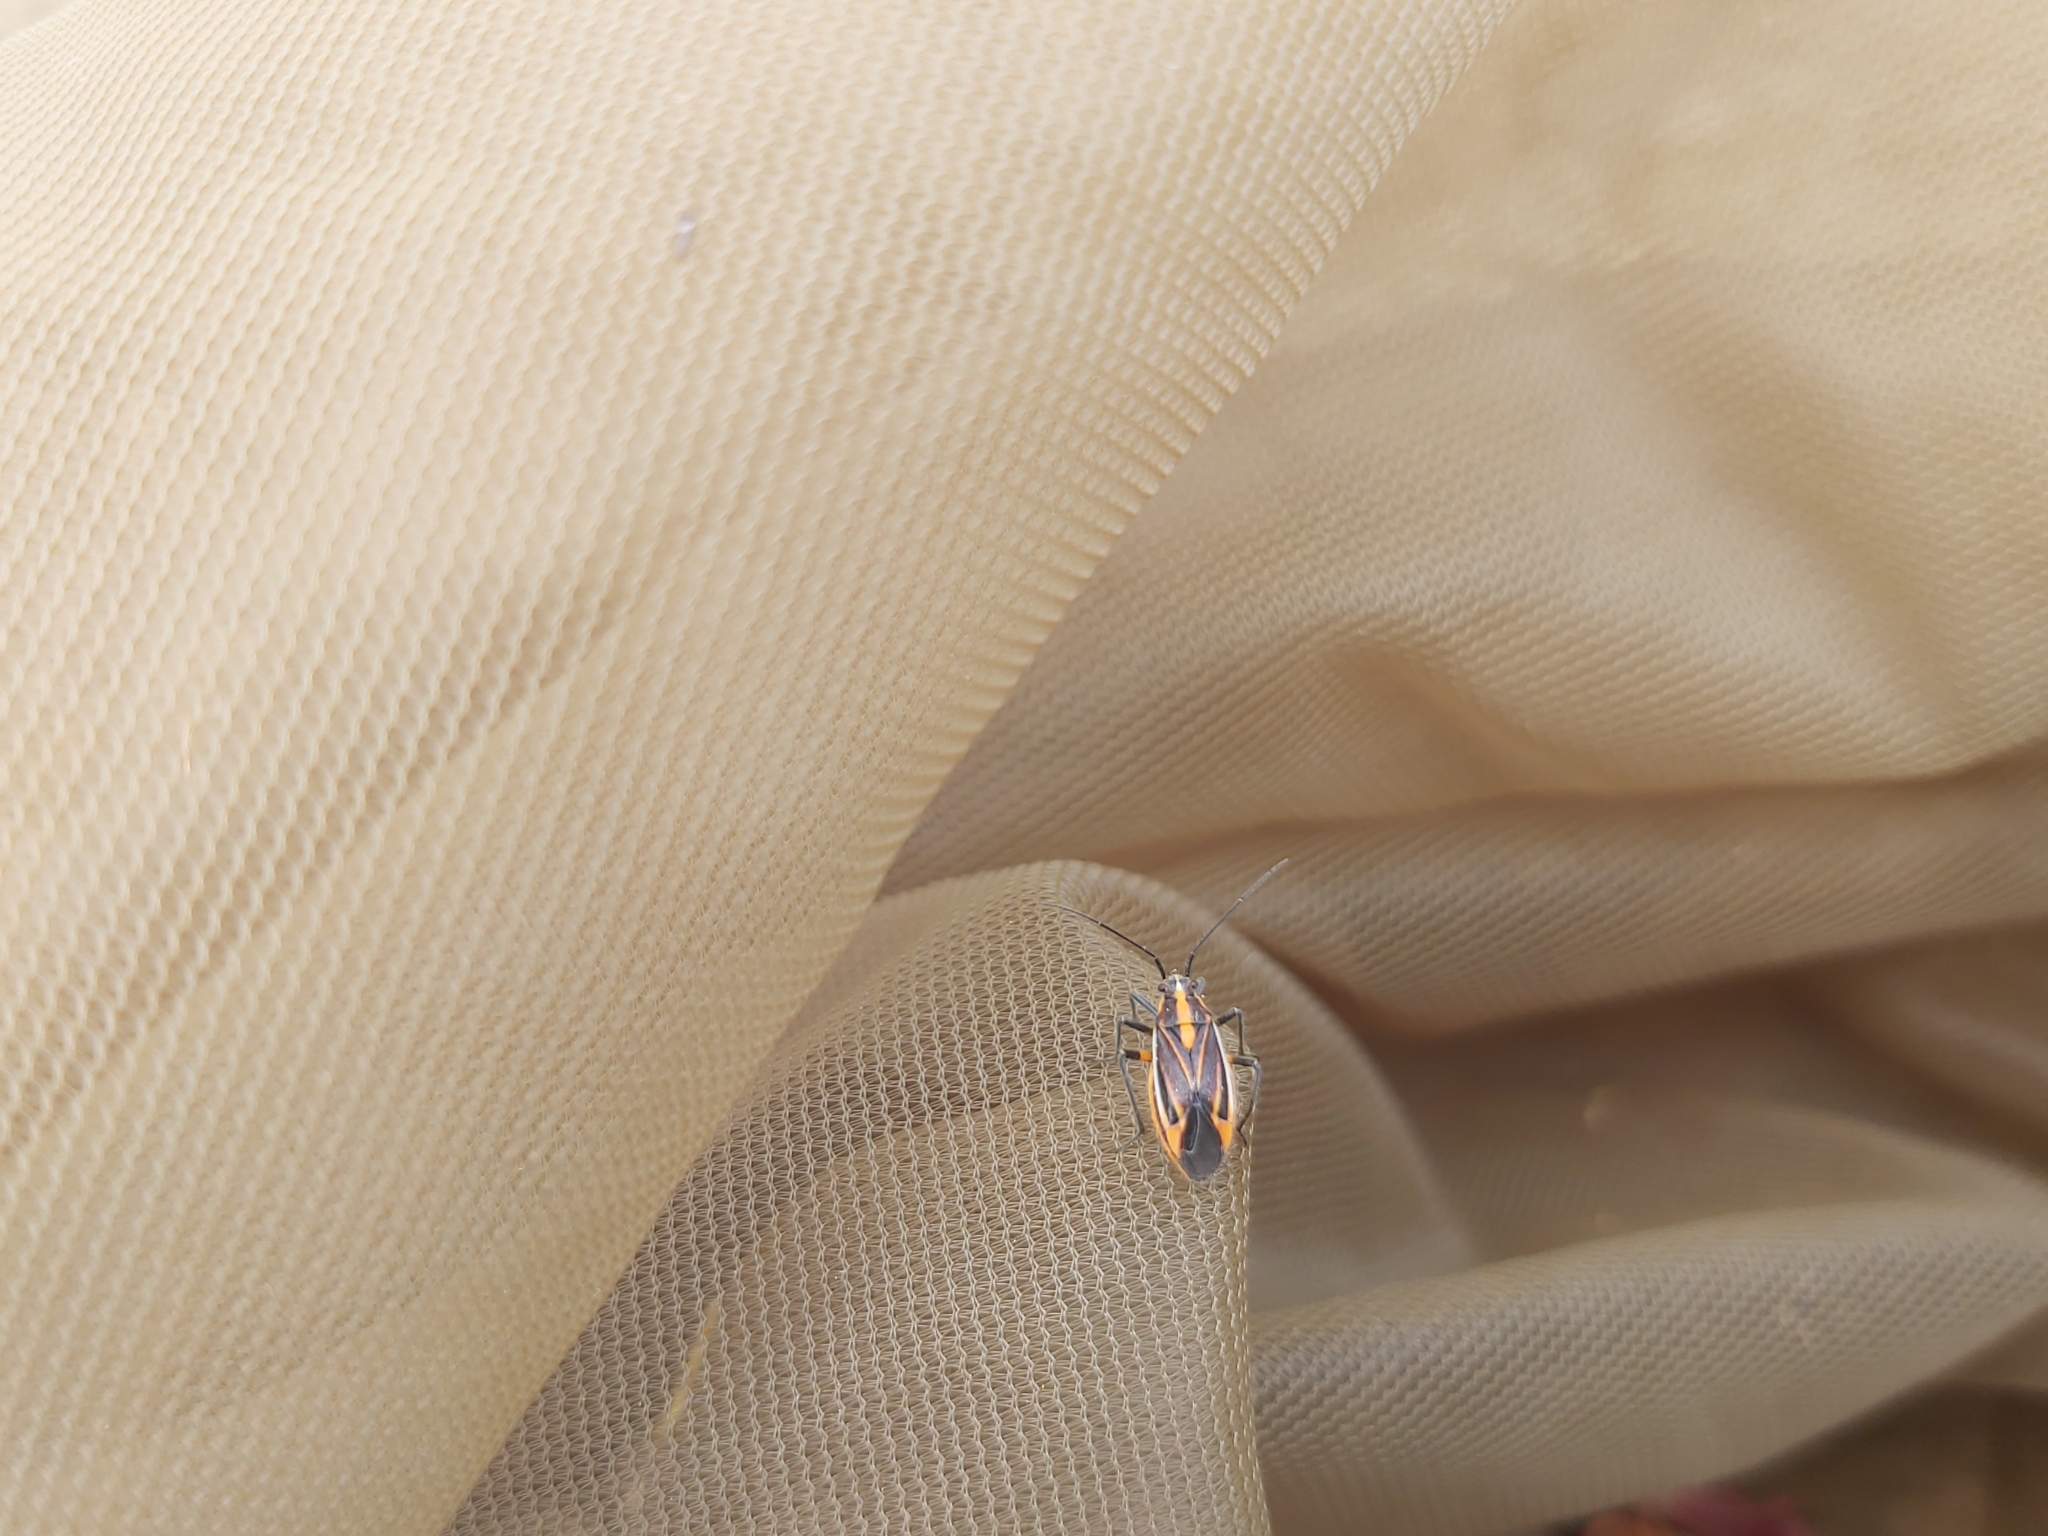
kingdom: Animalia
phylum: Arthropoda
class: Insecta
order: Hemiptera
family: Miridae
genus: Horistus
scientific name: Horistus orientalis
